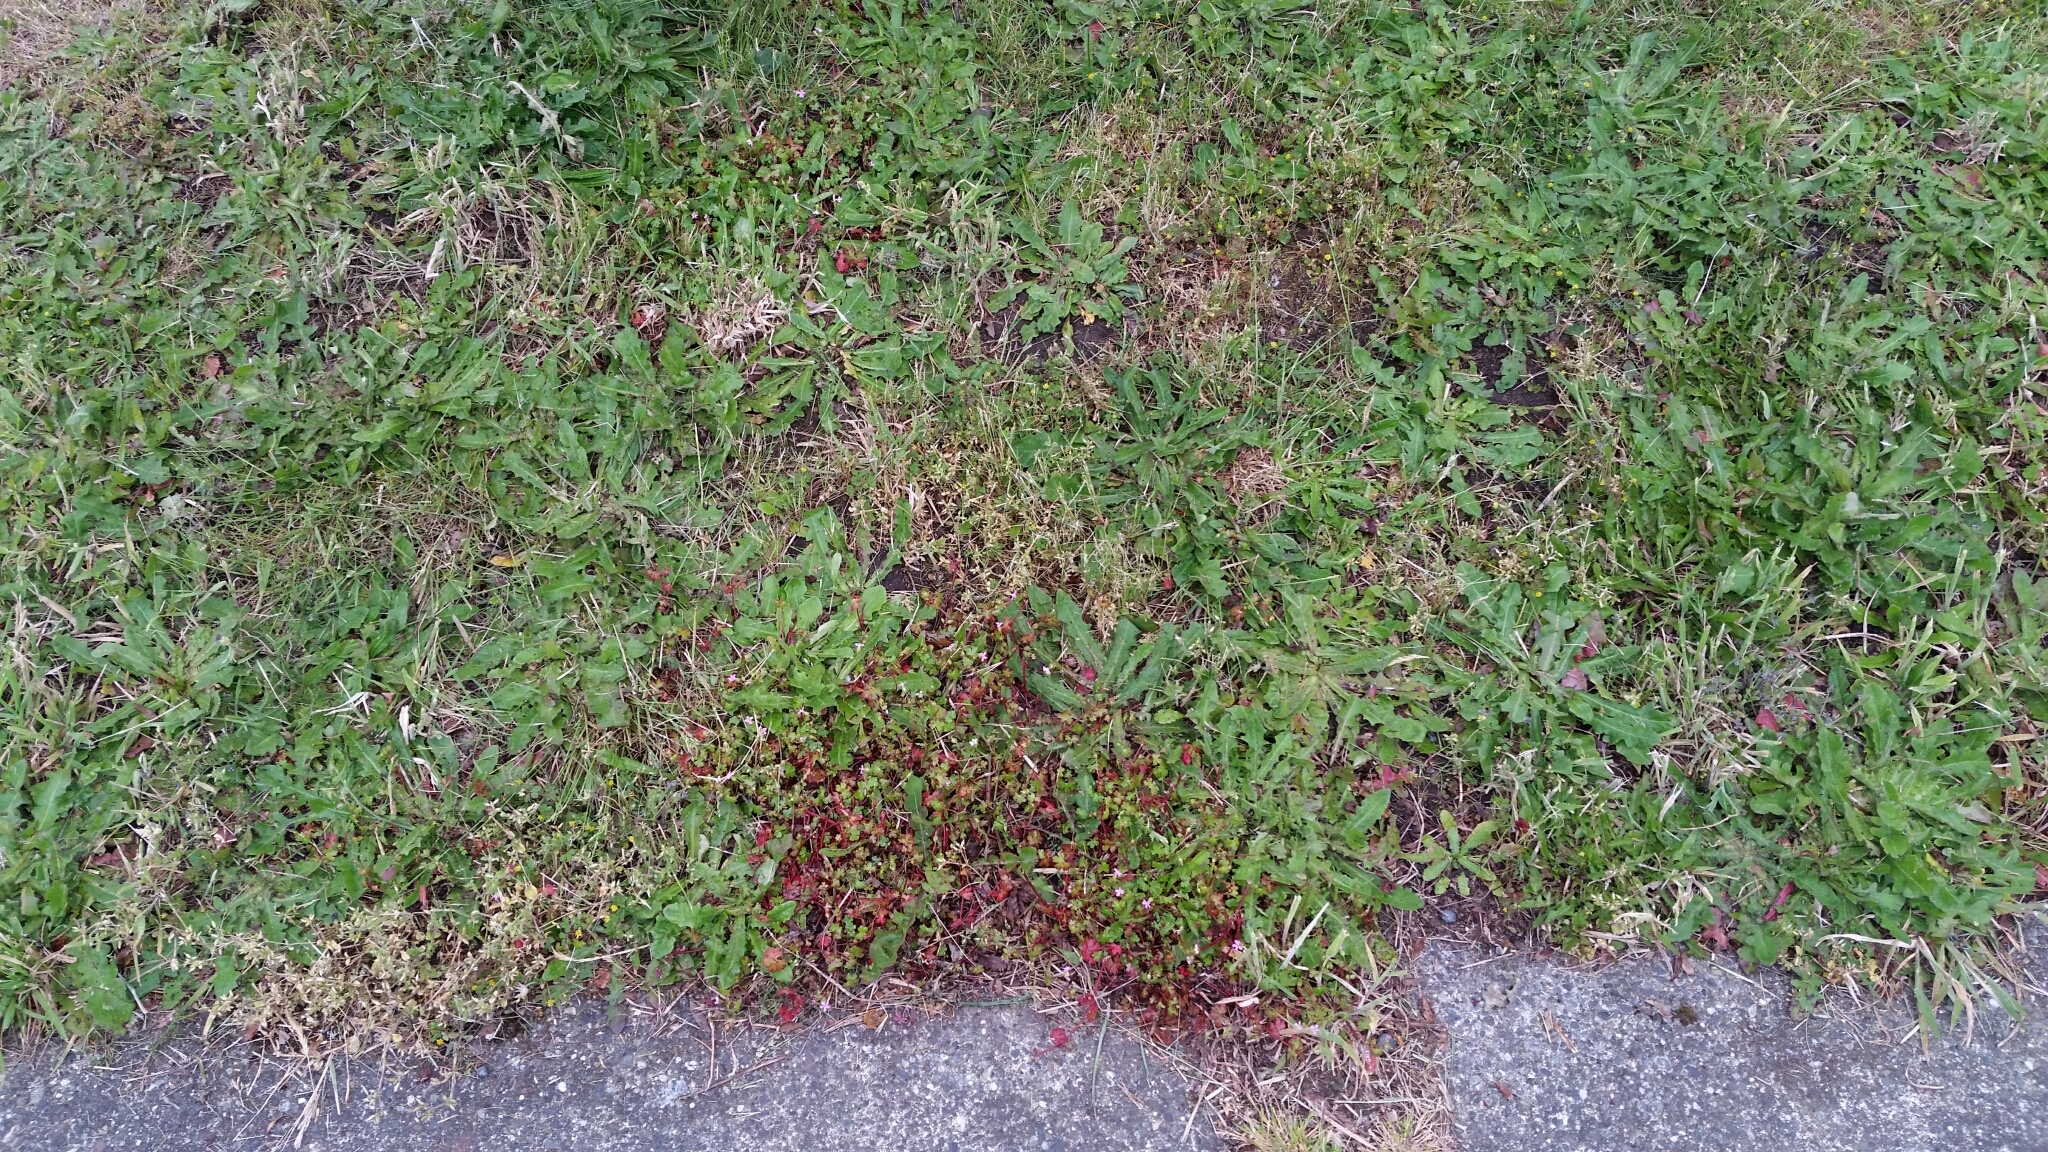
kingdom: Plantae
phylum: Tracheophyta
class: Magnoliopsida
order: Geraniales
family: Geraniaceae
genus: Geranium
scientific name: Geranium lucidum
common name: Shining crane's-bill
